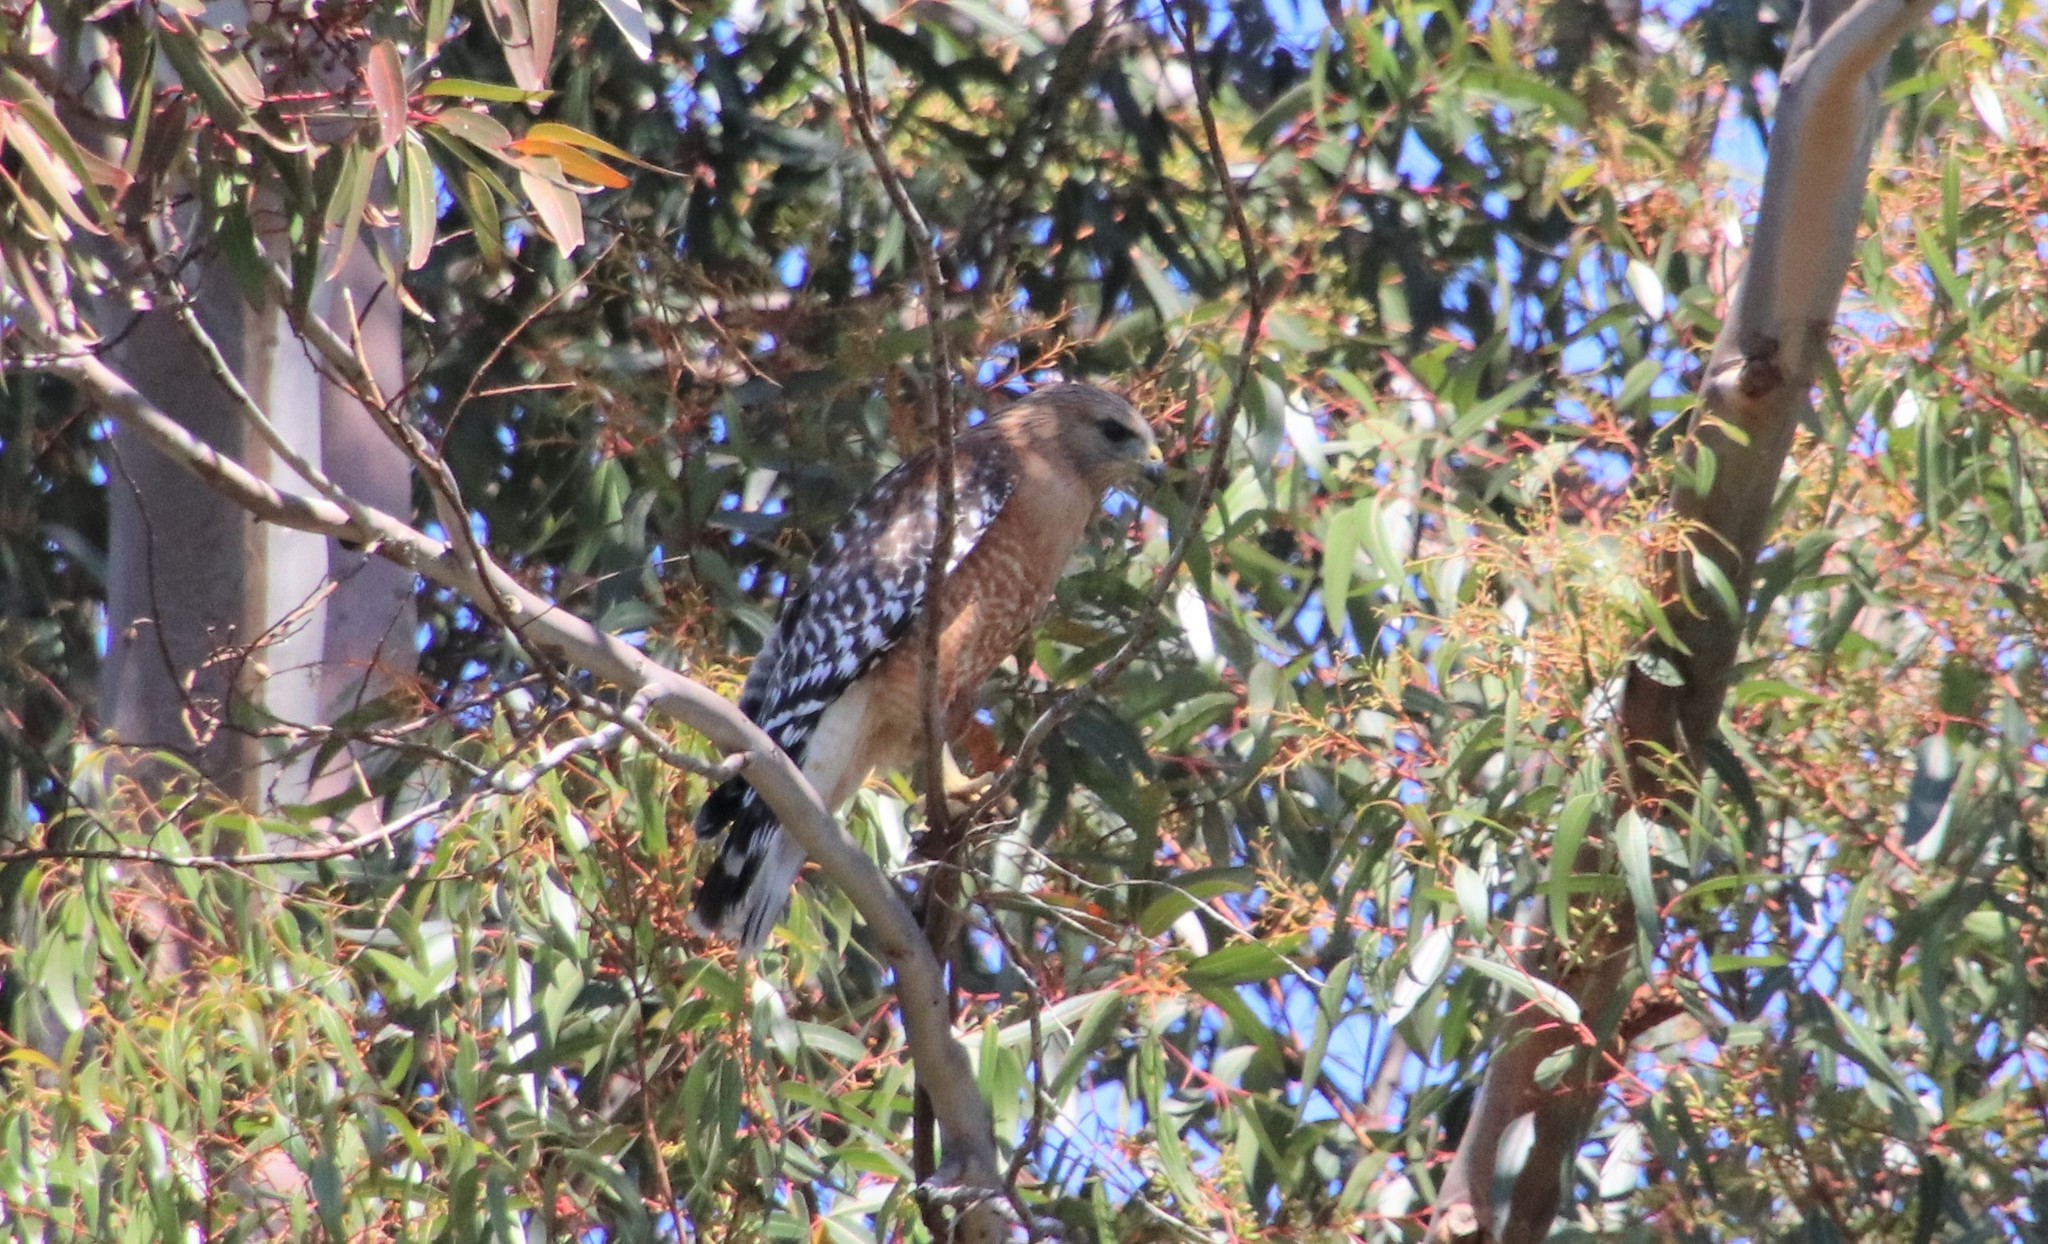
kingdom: Animalia
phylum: Chordata
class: Aves
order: Accipitriformes
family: Accipitridae
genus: Buteo
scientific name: Buteo lineatus
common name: Red-shouldered hawk
